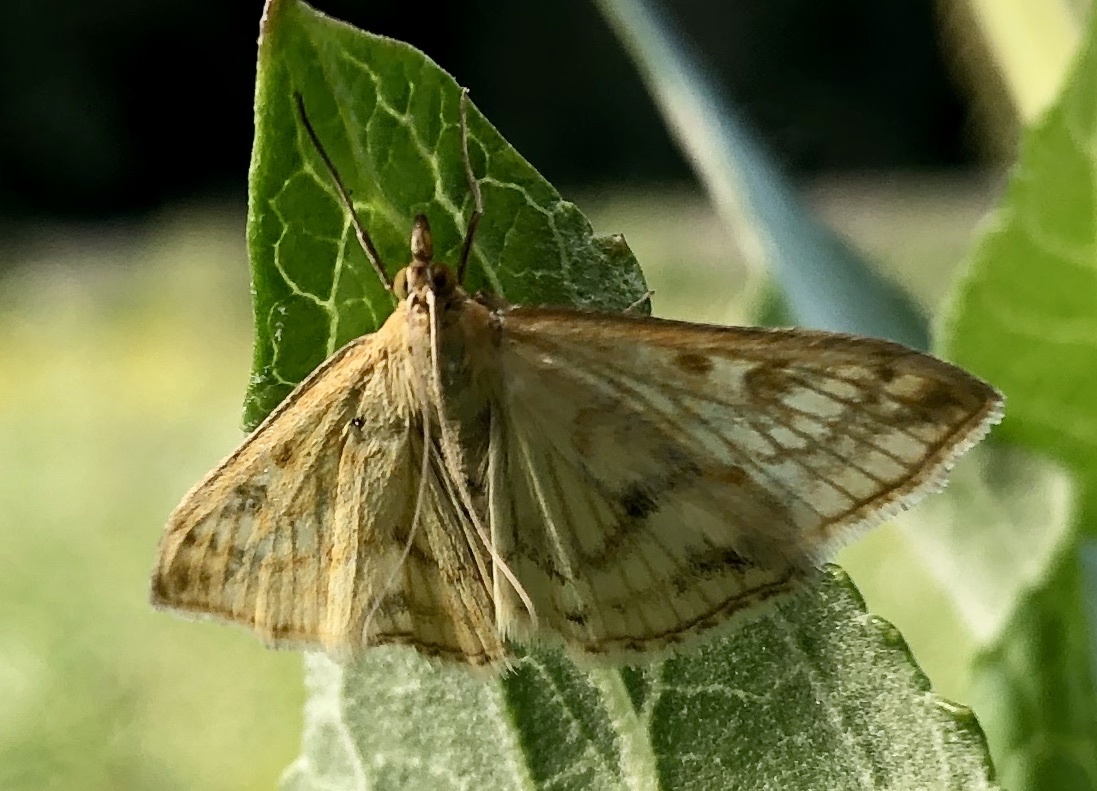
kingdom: Animalia
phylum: Arthropoda
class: Insecta
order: Lepidoptera
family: Crambidae
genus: Sitochroa
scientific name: Sitochroa verticalis
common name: Lesser pearl
